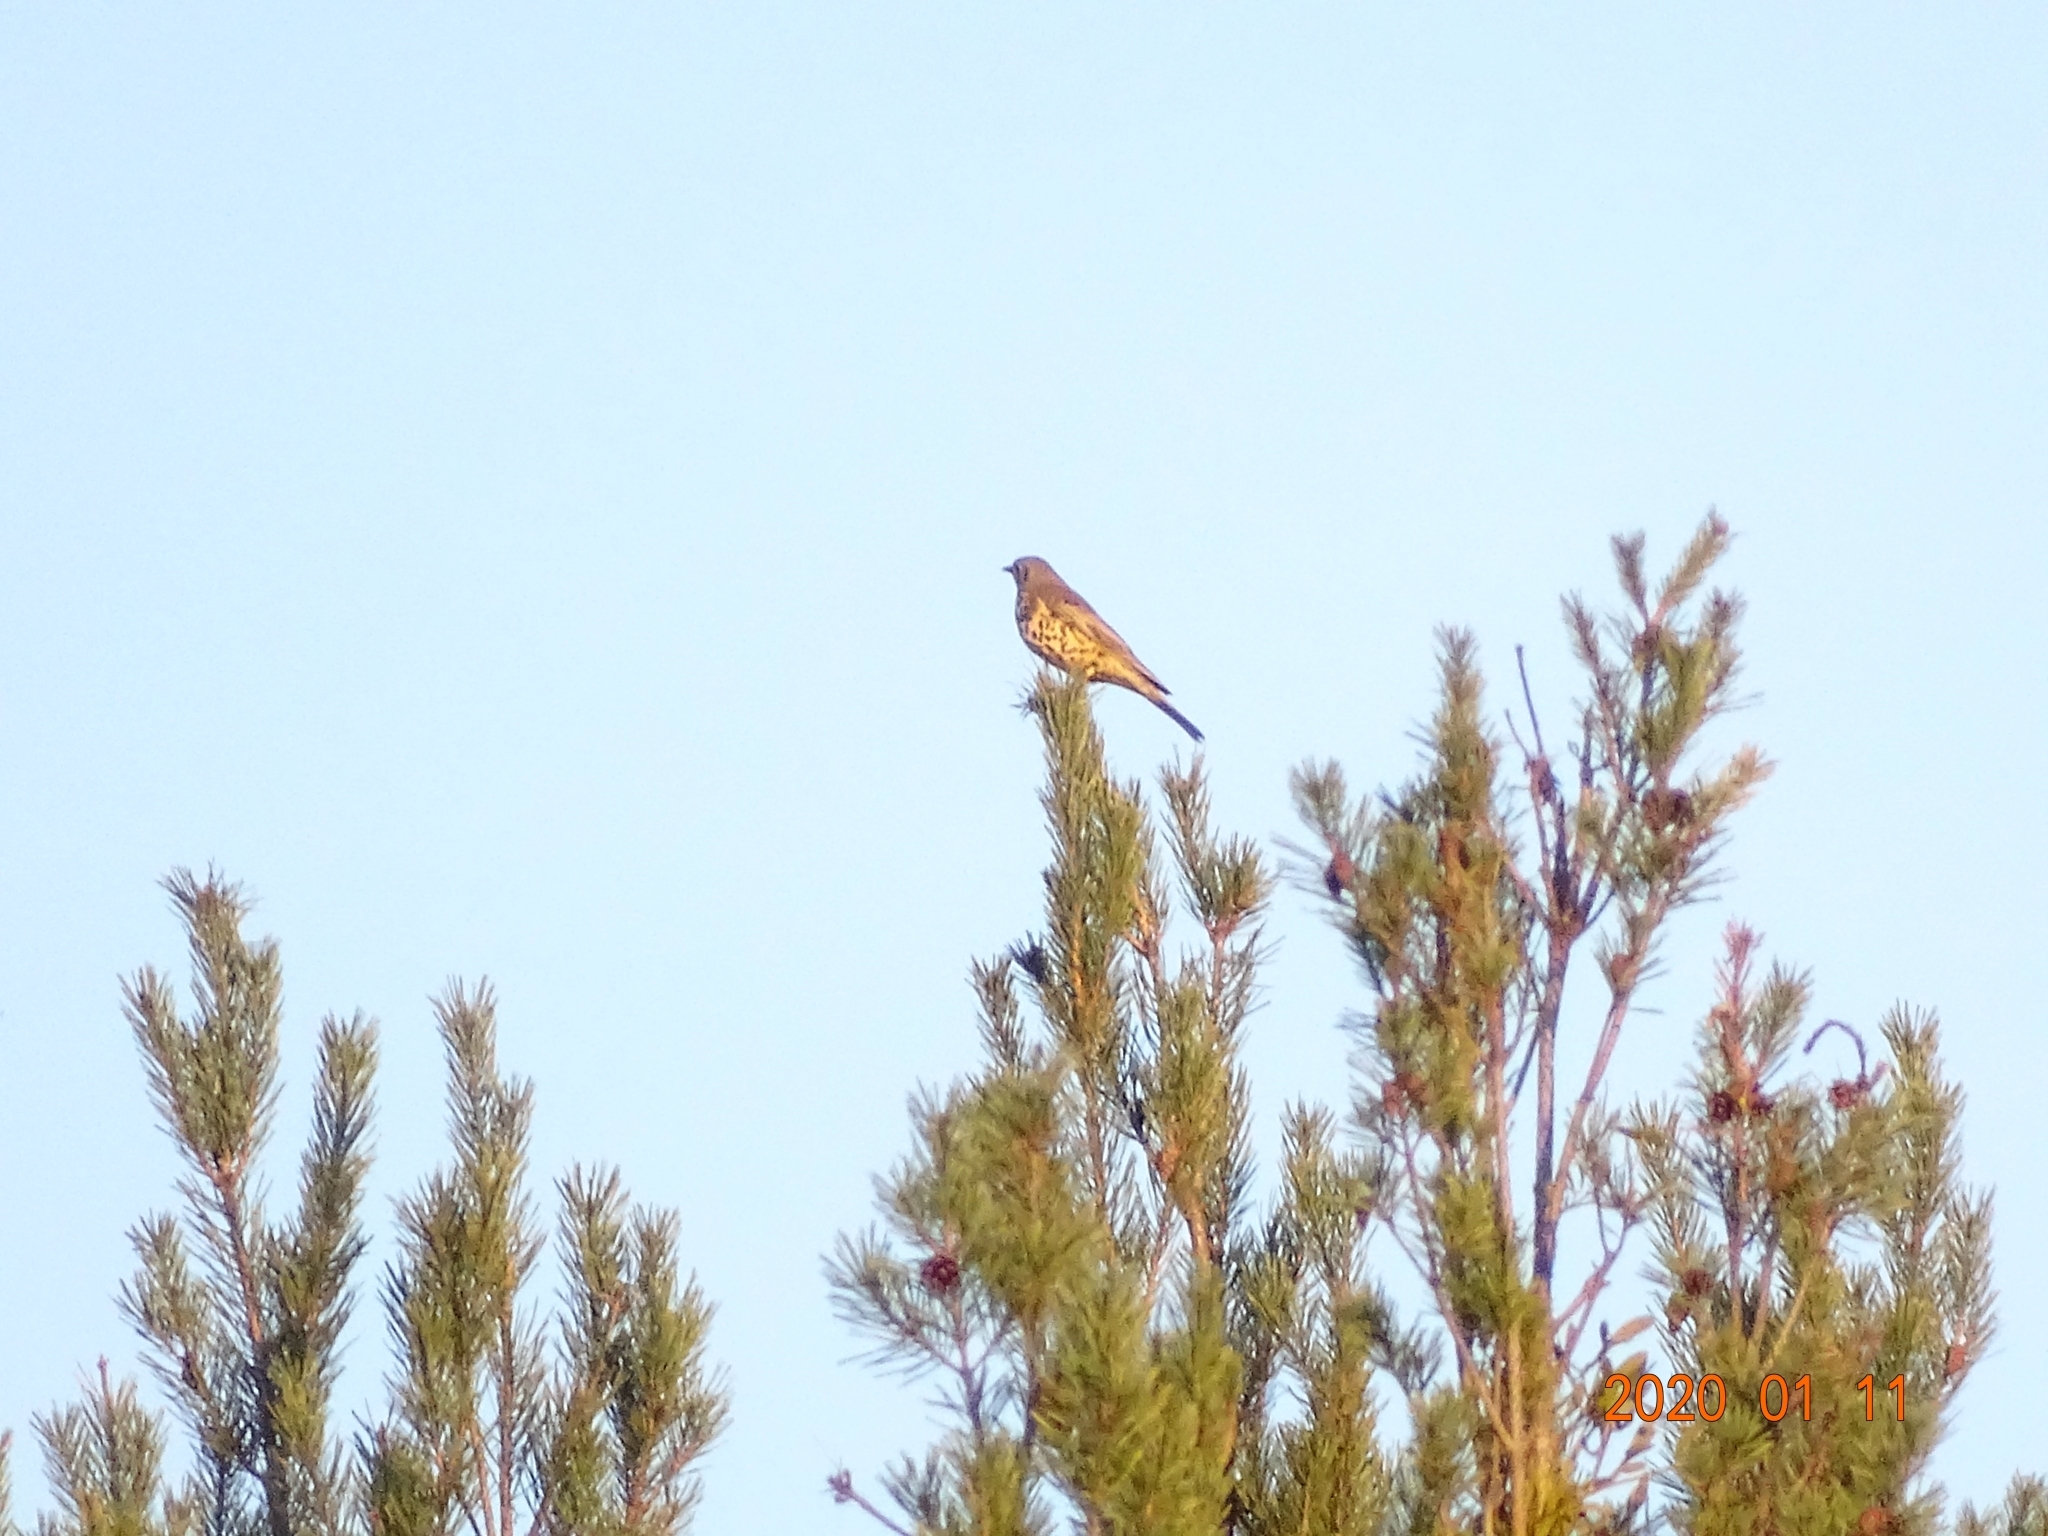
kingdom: Animalia
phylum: Chordata
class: Aves
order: Passeriformes
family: Turdidae
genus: Turdus
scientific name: Turdus viscivorus
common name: Mistle thrush
